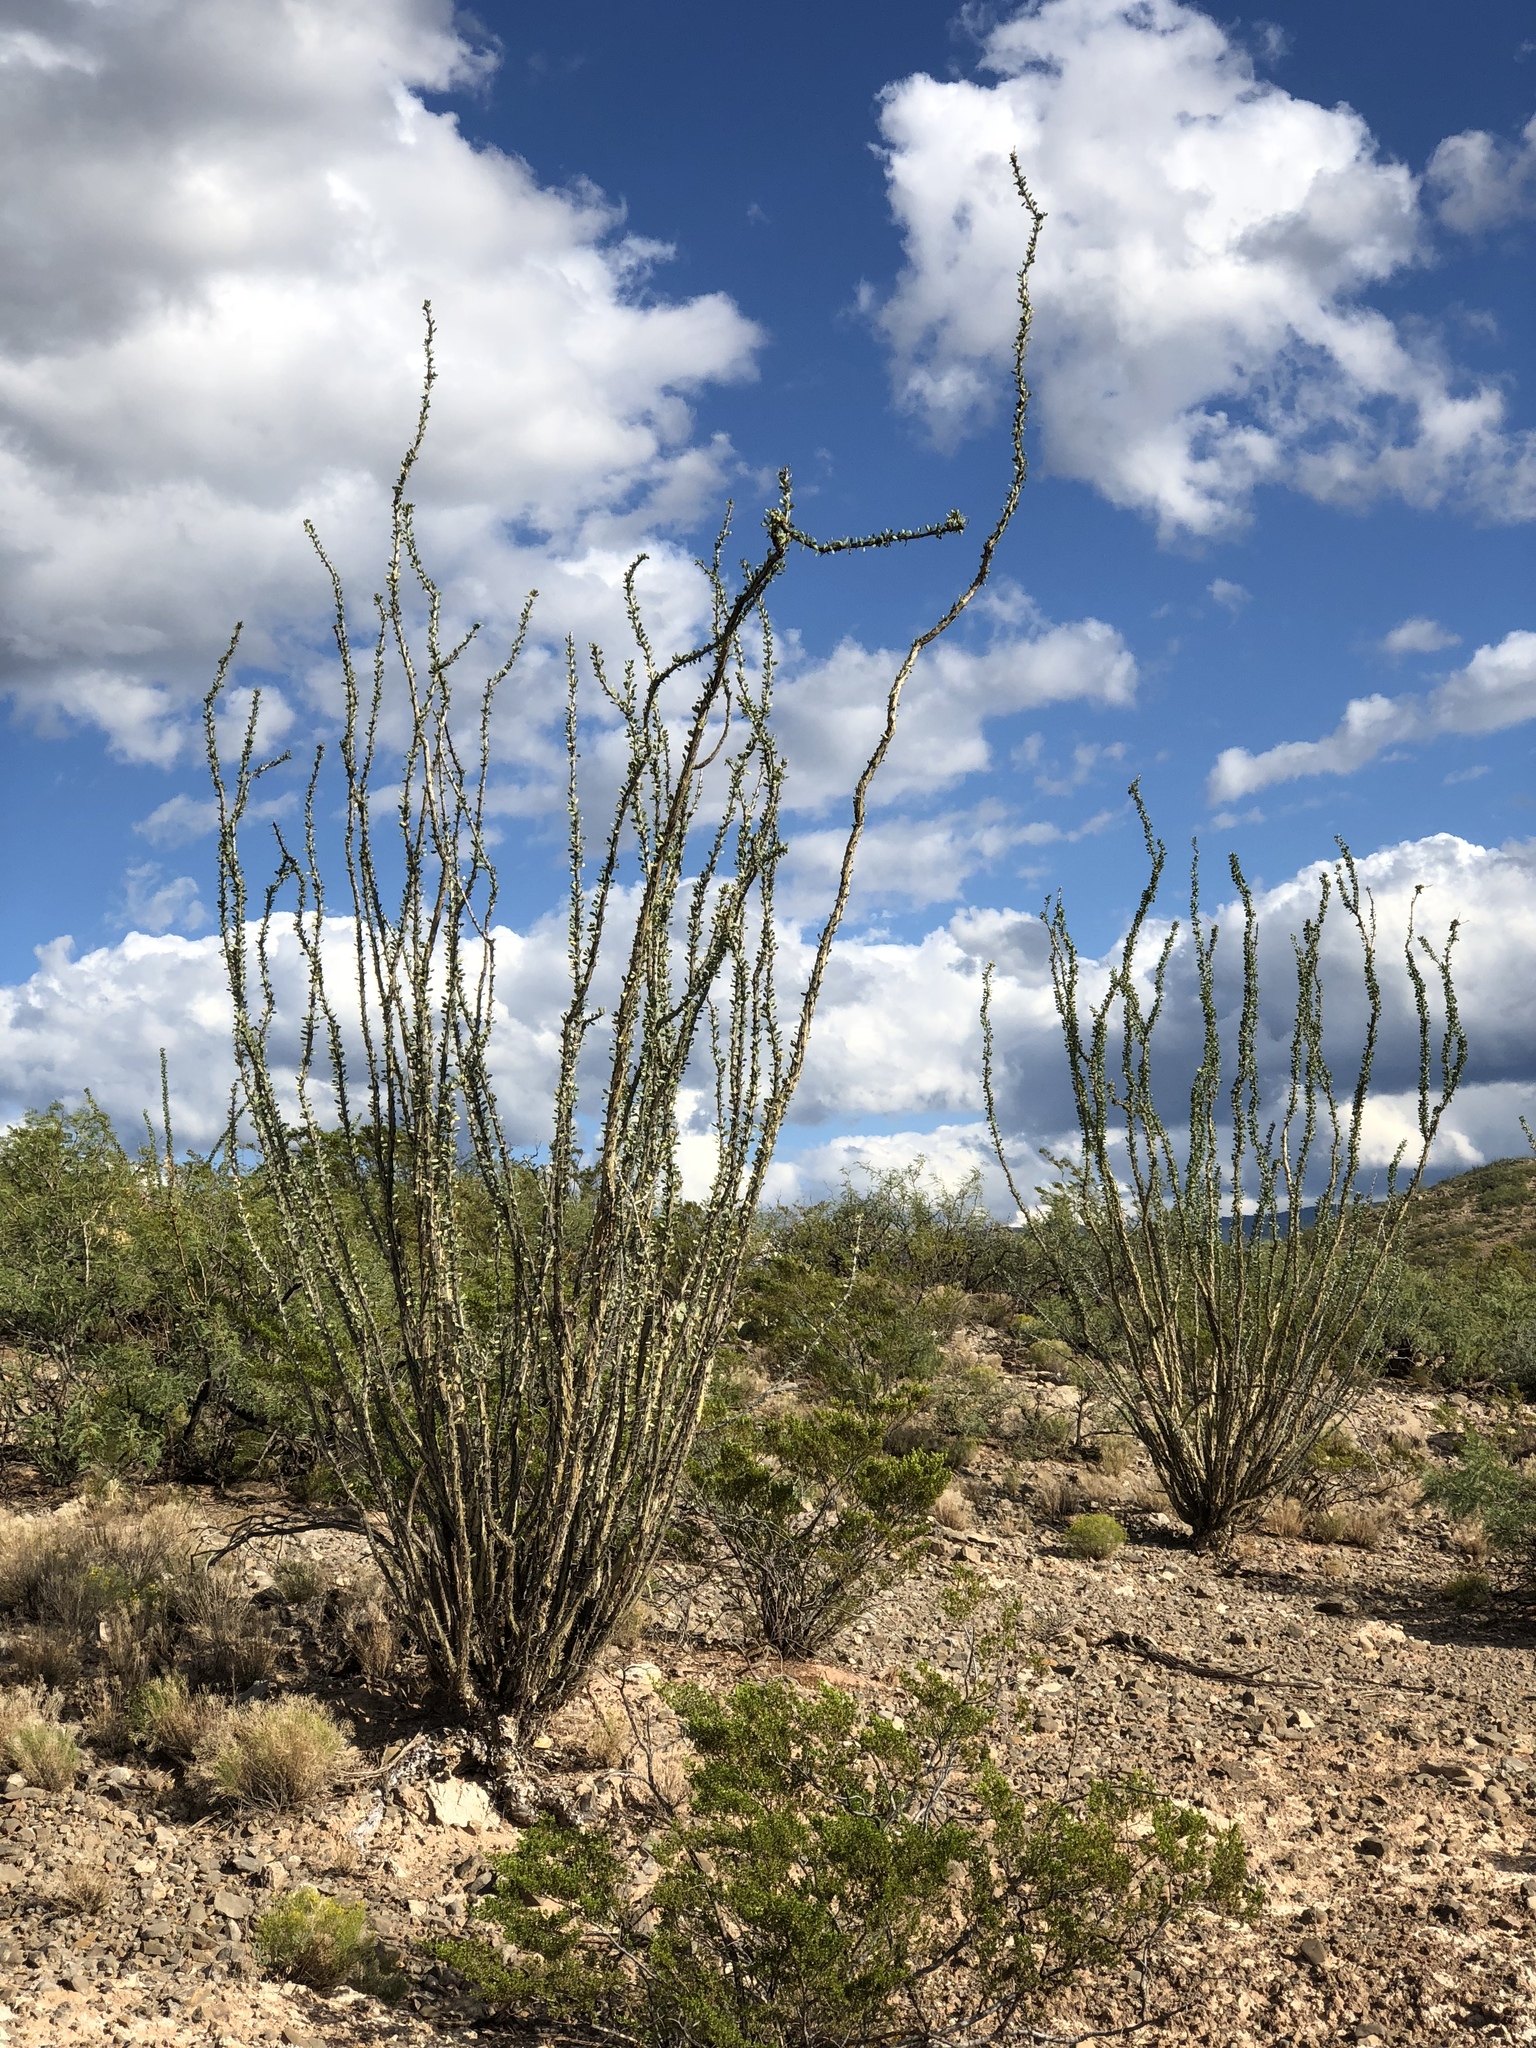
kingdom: Plantae
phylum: Tracheophyta
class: Magnoliopsida
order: Ericales
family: Fouquieriaceae
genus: Fouquieria
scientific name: Fouquieria splendens
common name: Vine-cactus
